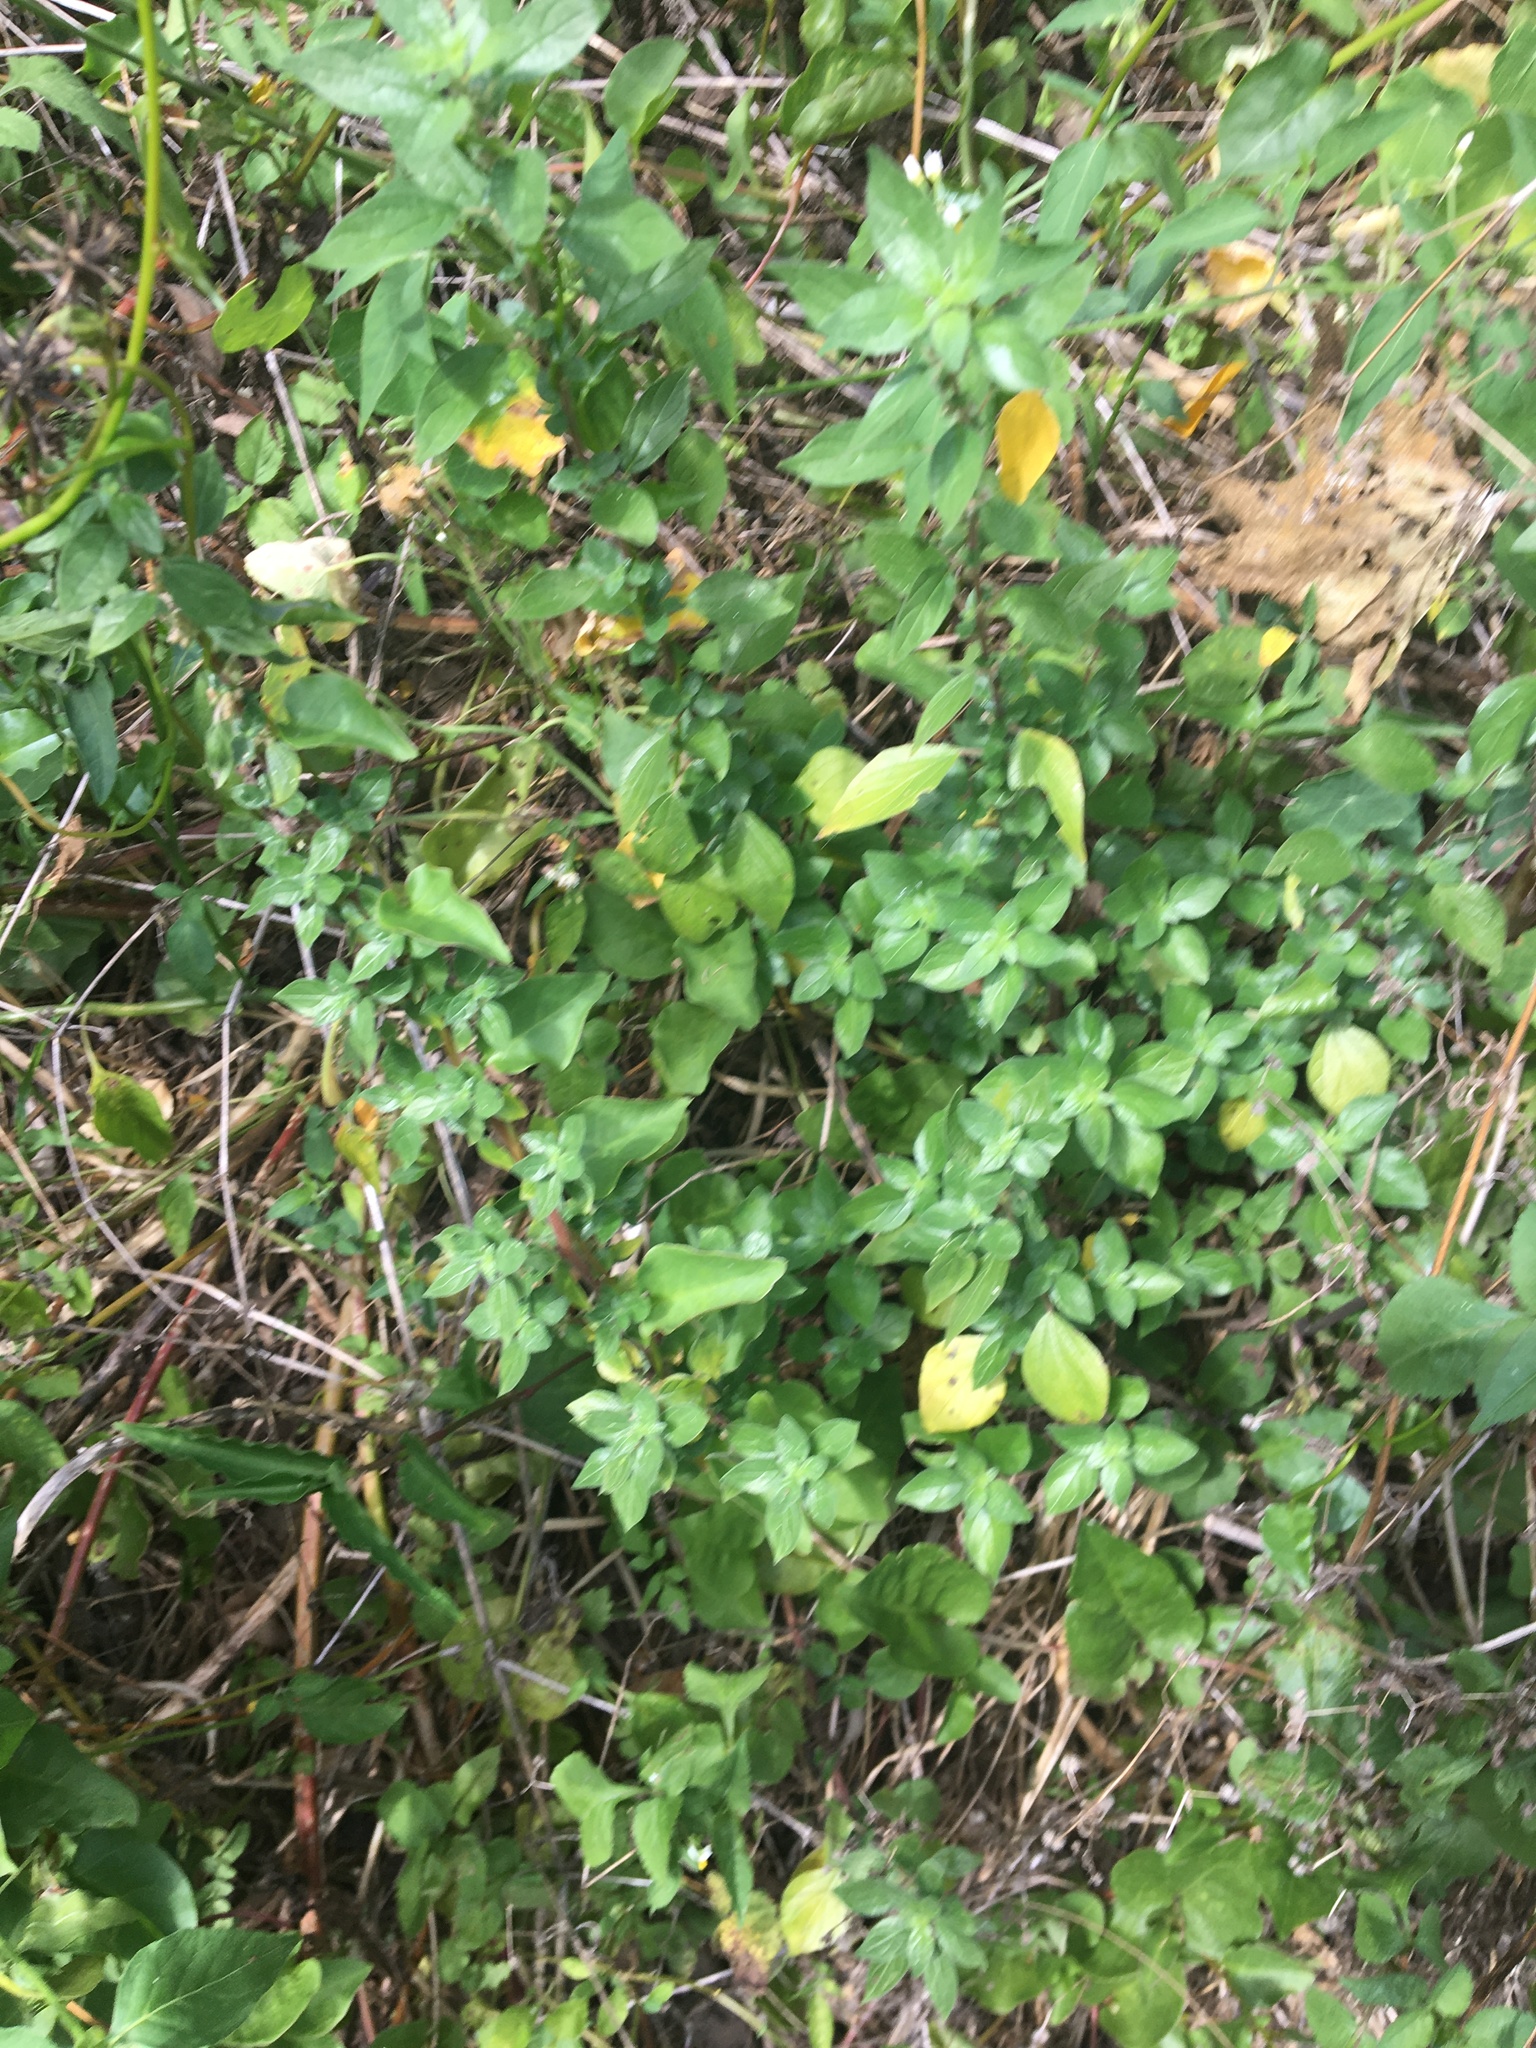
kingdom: Plantae
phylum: Tracheophyta
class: Magnoliopsida
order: Rosales
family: Urticaceae
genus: Parietaria
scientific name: Parietaria judaica
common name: Pellitory-of-the-wall
